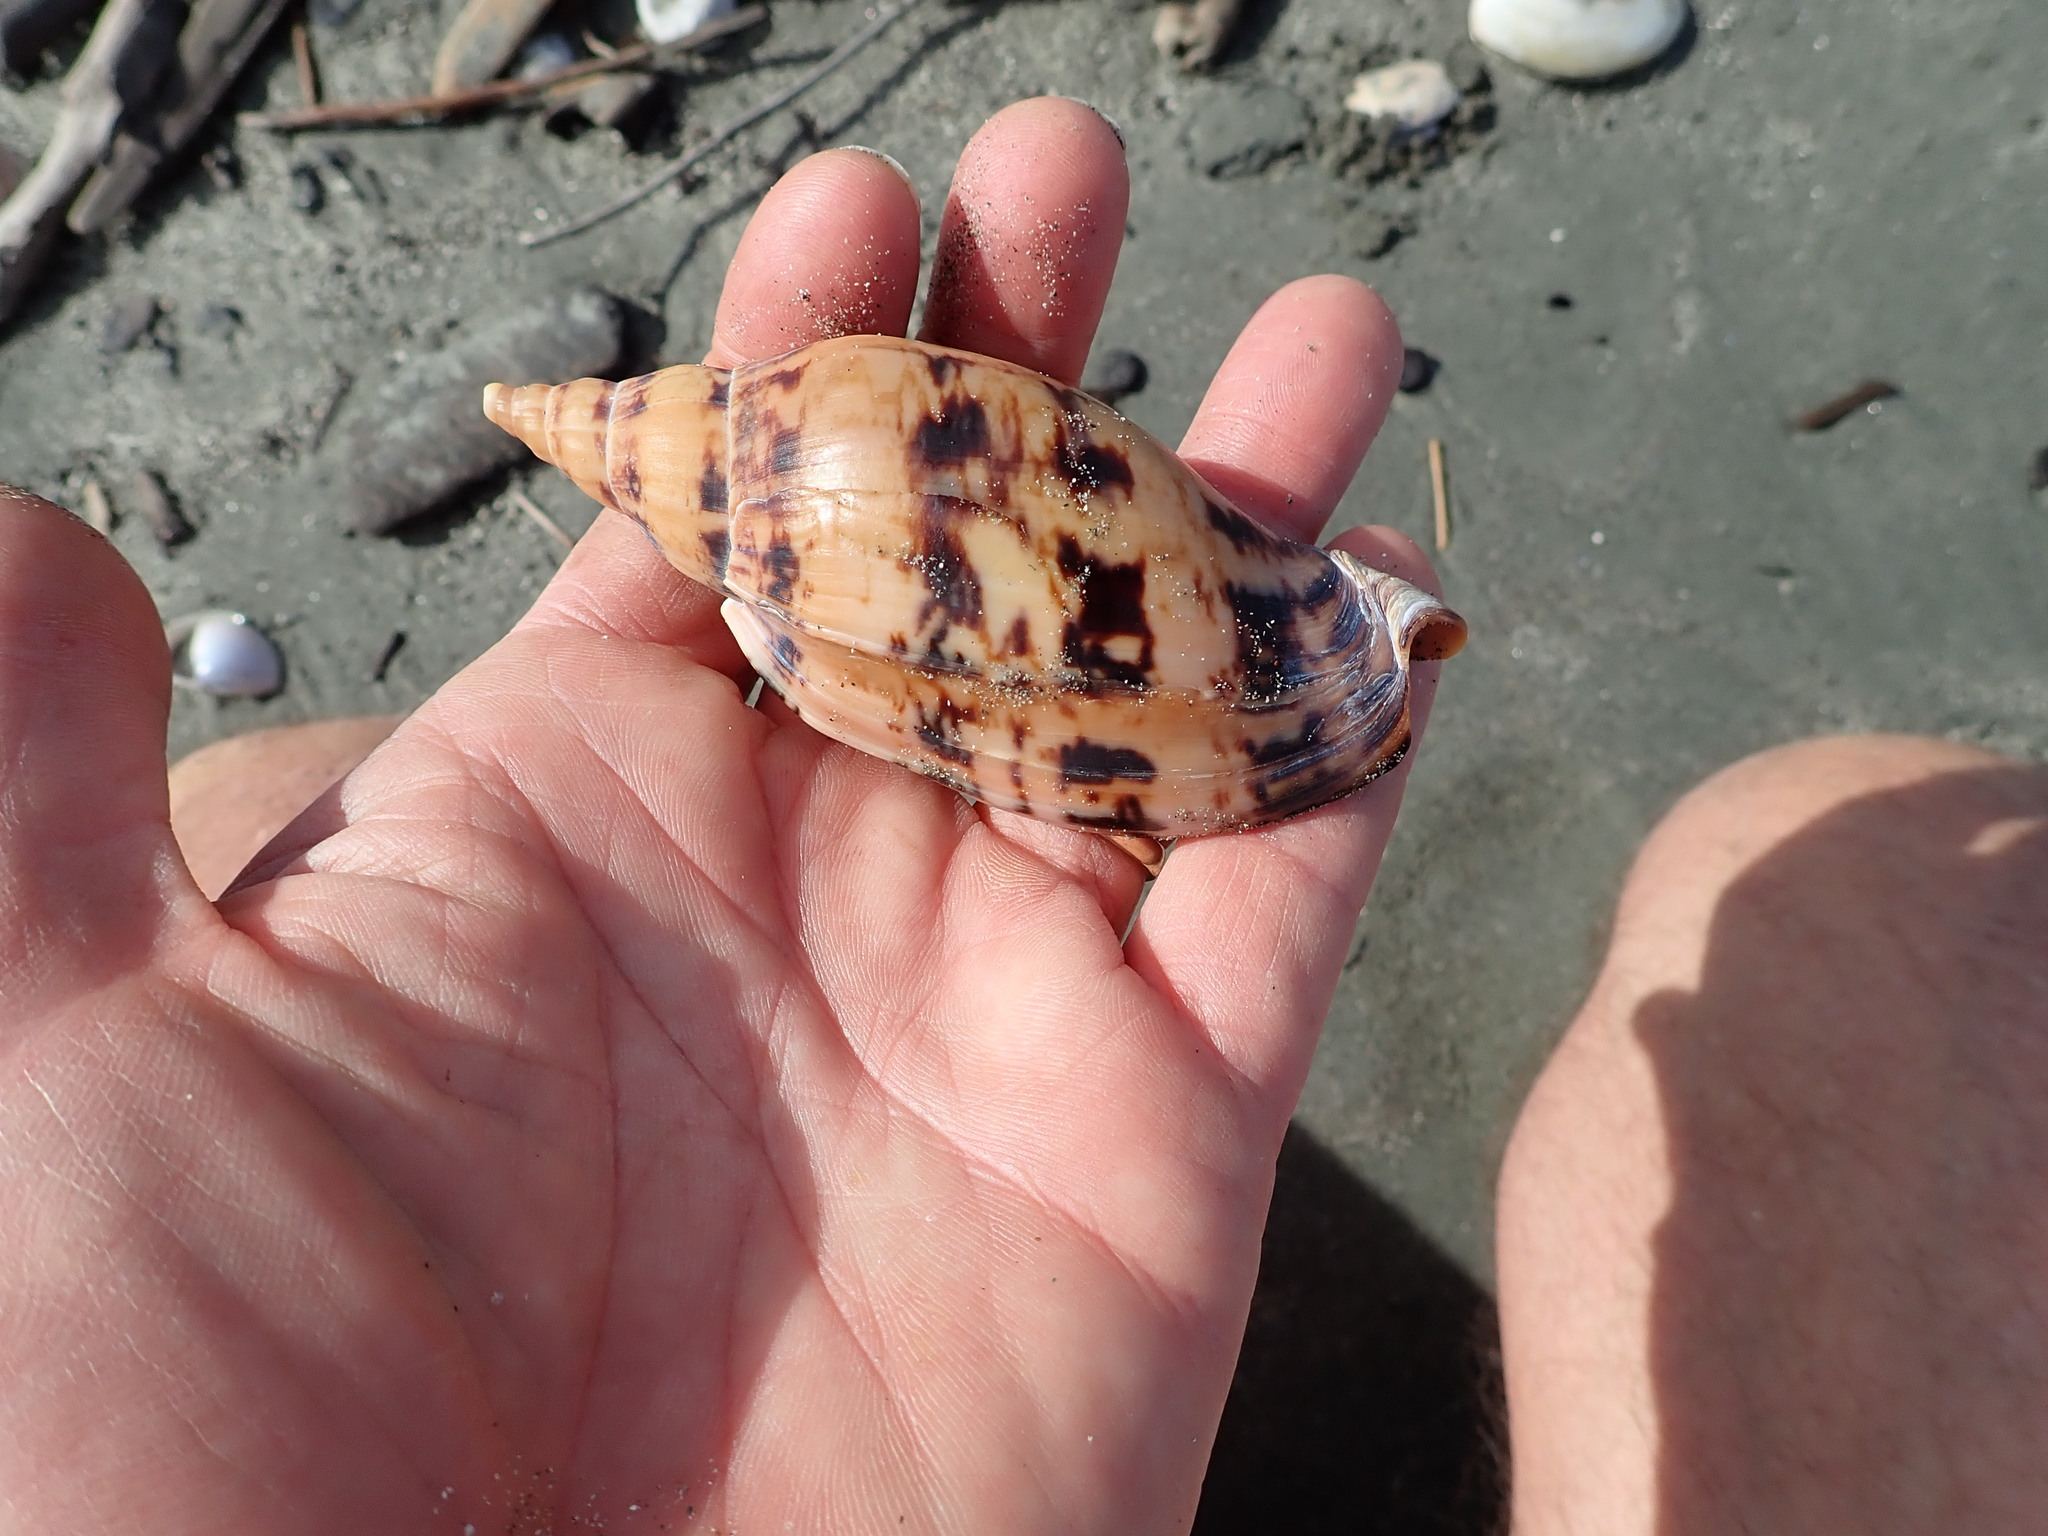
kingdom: Animalia
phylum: Mollusca
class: Gastropoda
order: Neogastropoda
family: Volutidae
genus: Alcithoe
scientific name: Alcithoe arabica
